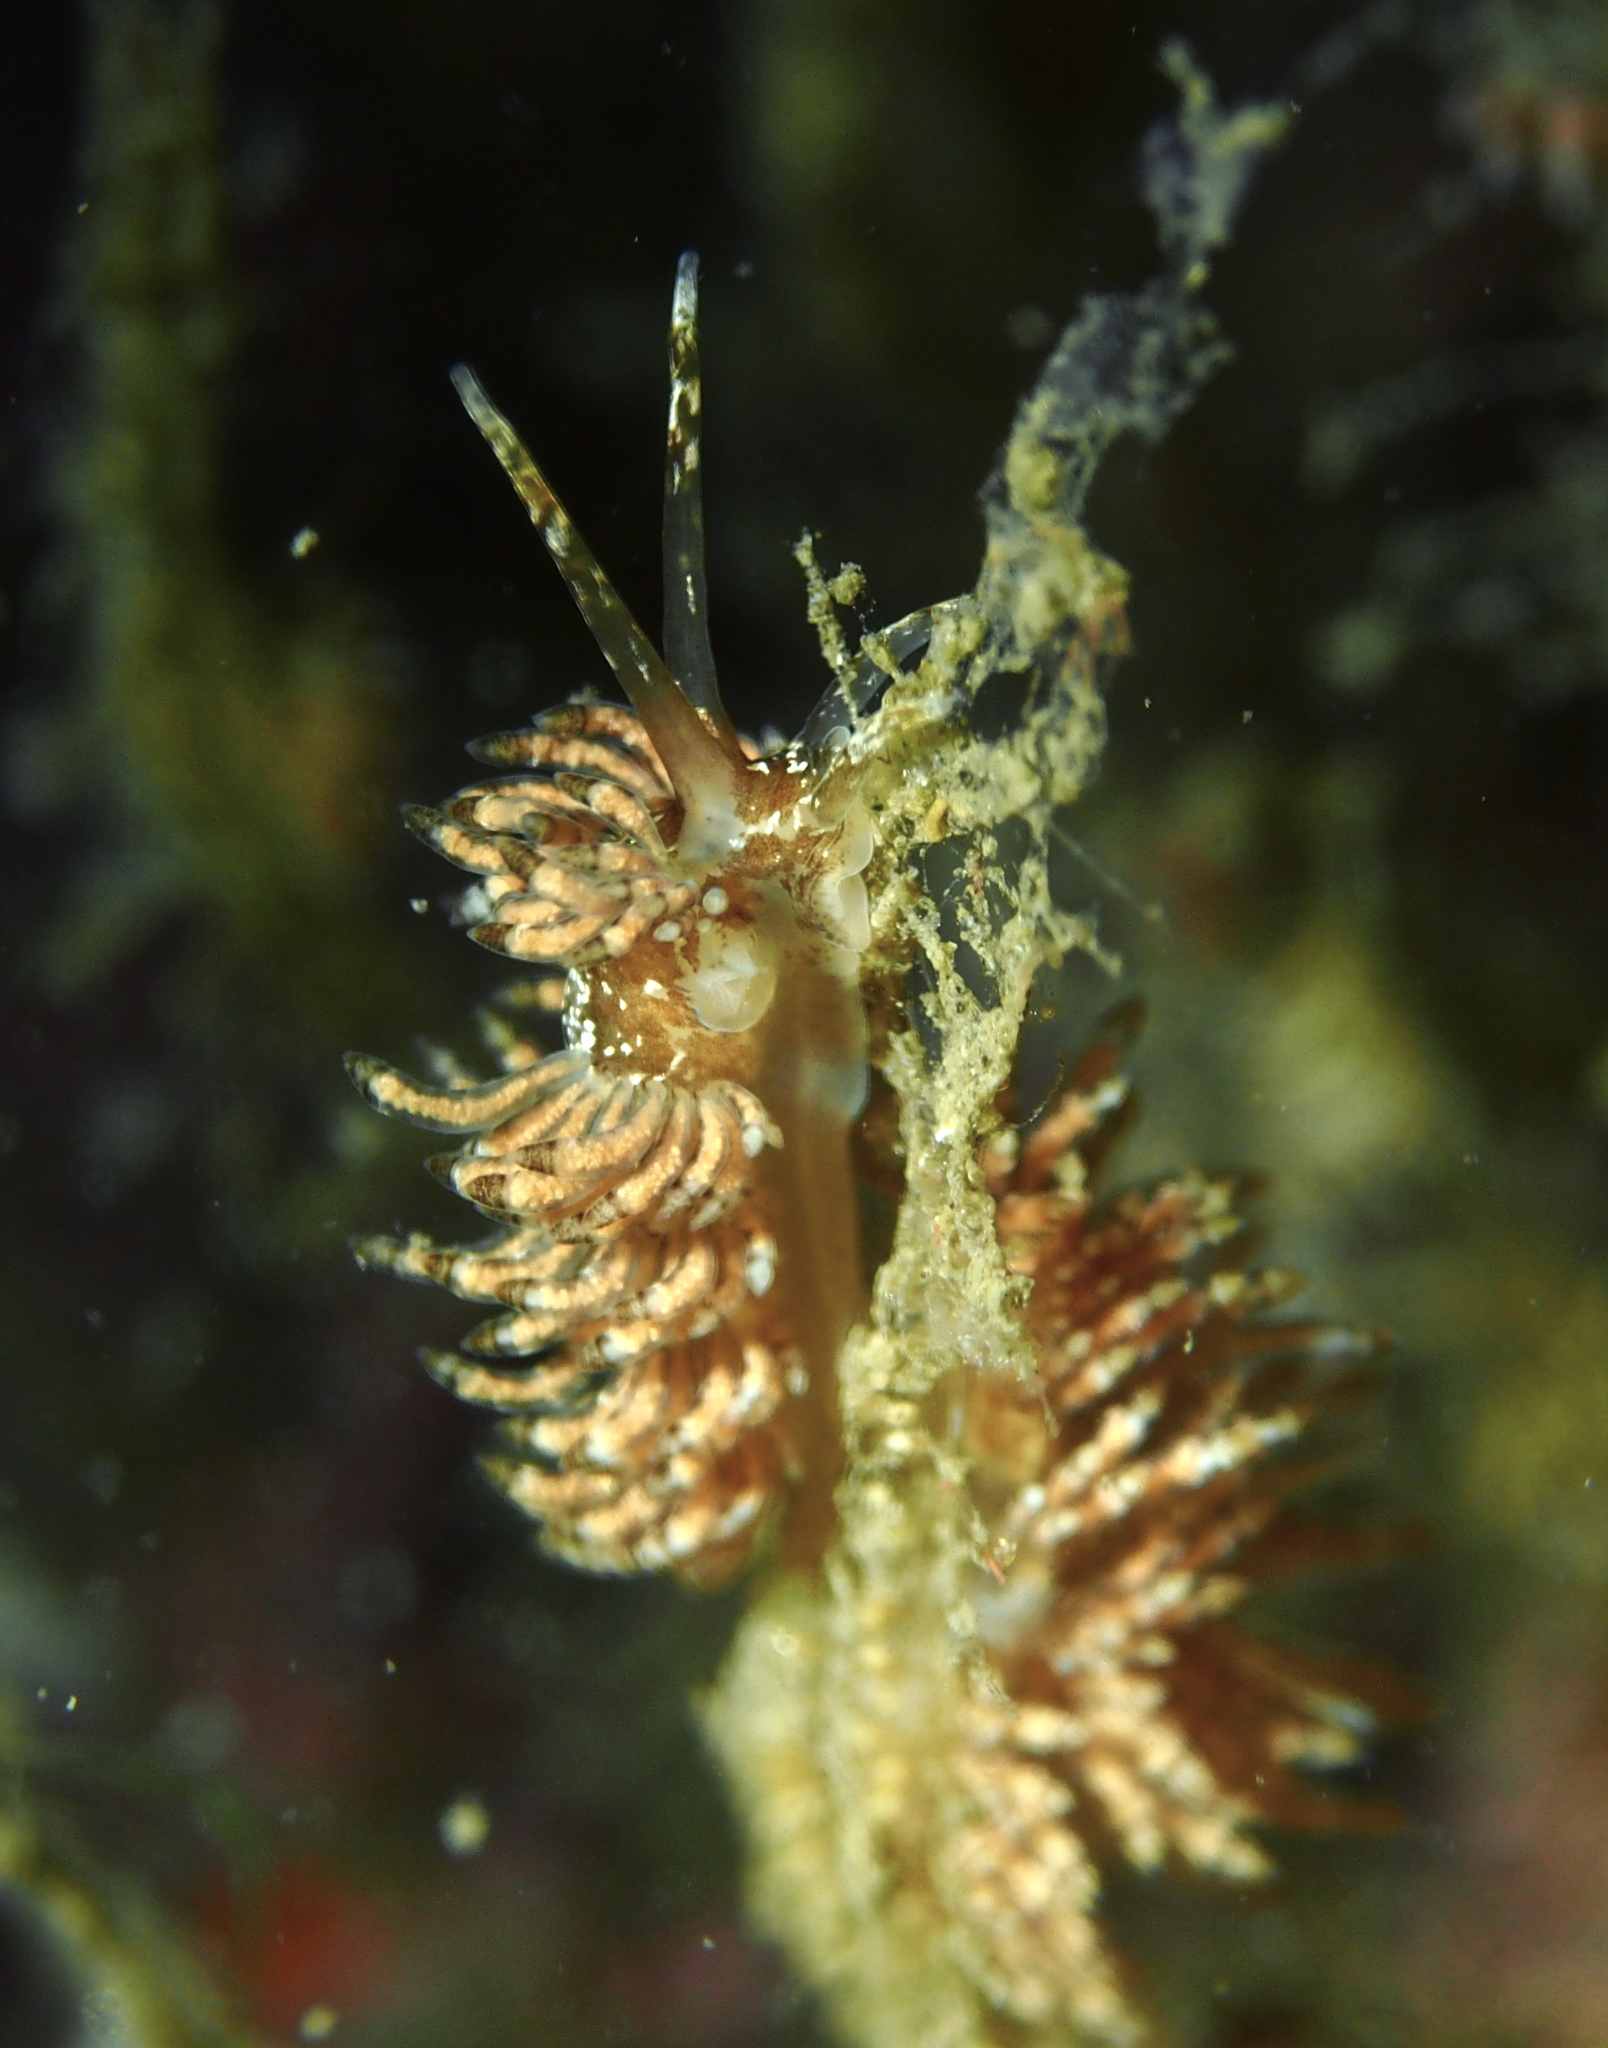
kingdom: Animalia
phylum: Mollusca
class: Gastropoda
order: Nudibranchia
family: Eubranchidae
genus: Eubranchus
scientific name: Eubranchus vittatus
